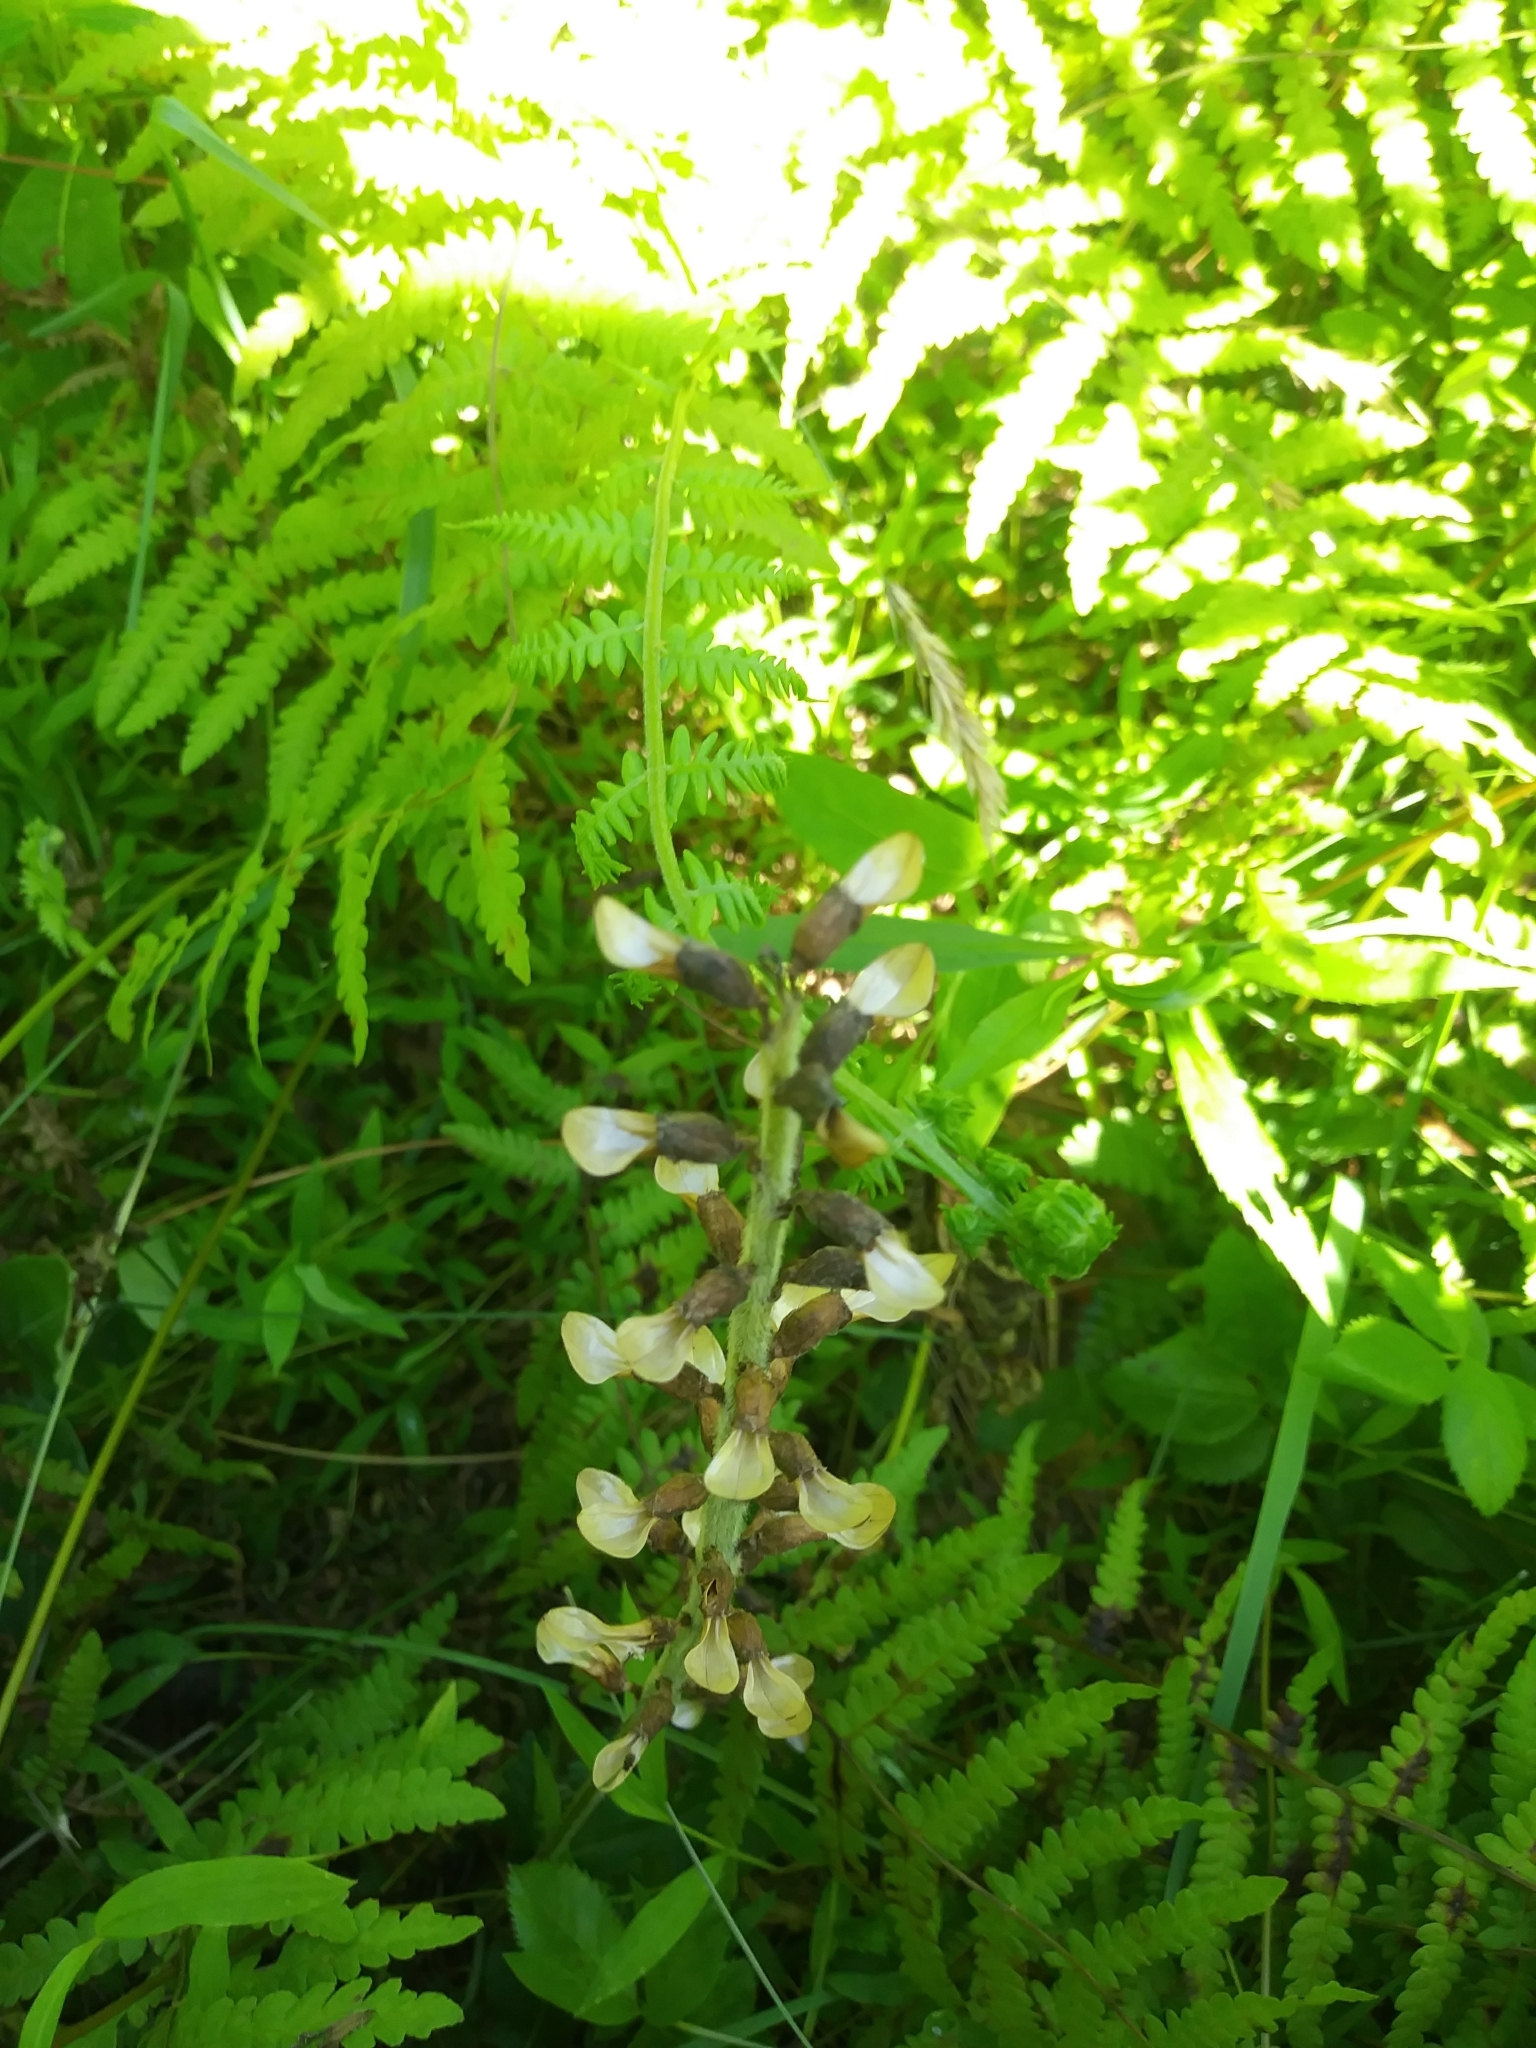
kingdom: Plantae
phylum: Tracheophyta
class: Magnoliopsida
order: Lamiales
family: Orobanchaceae
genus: Pedicularis
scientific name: Pedicularis canadensis
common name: Early lousewort
